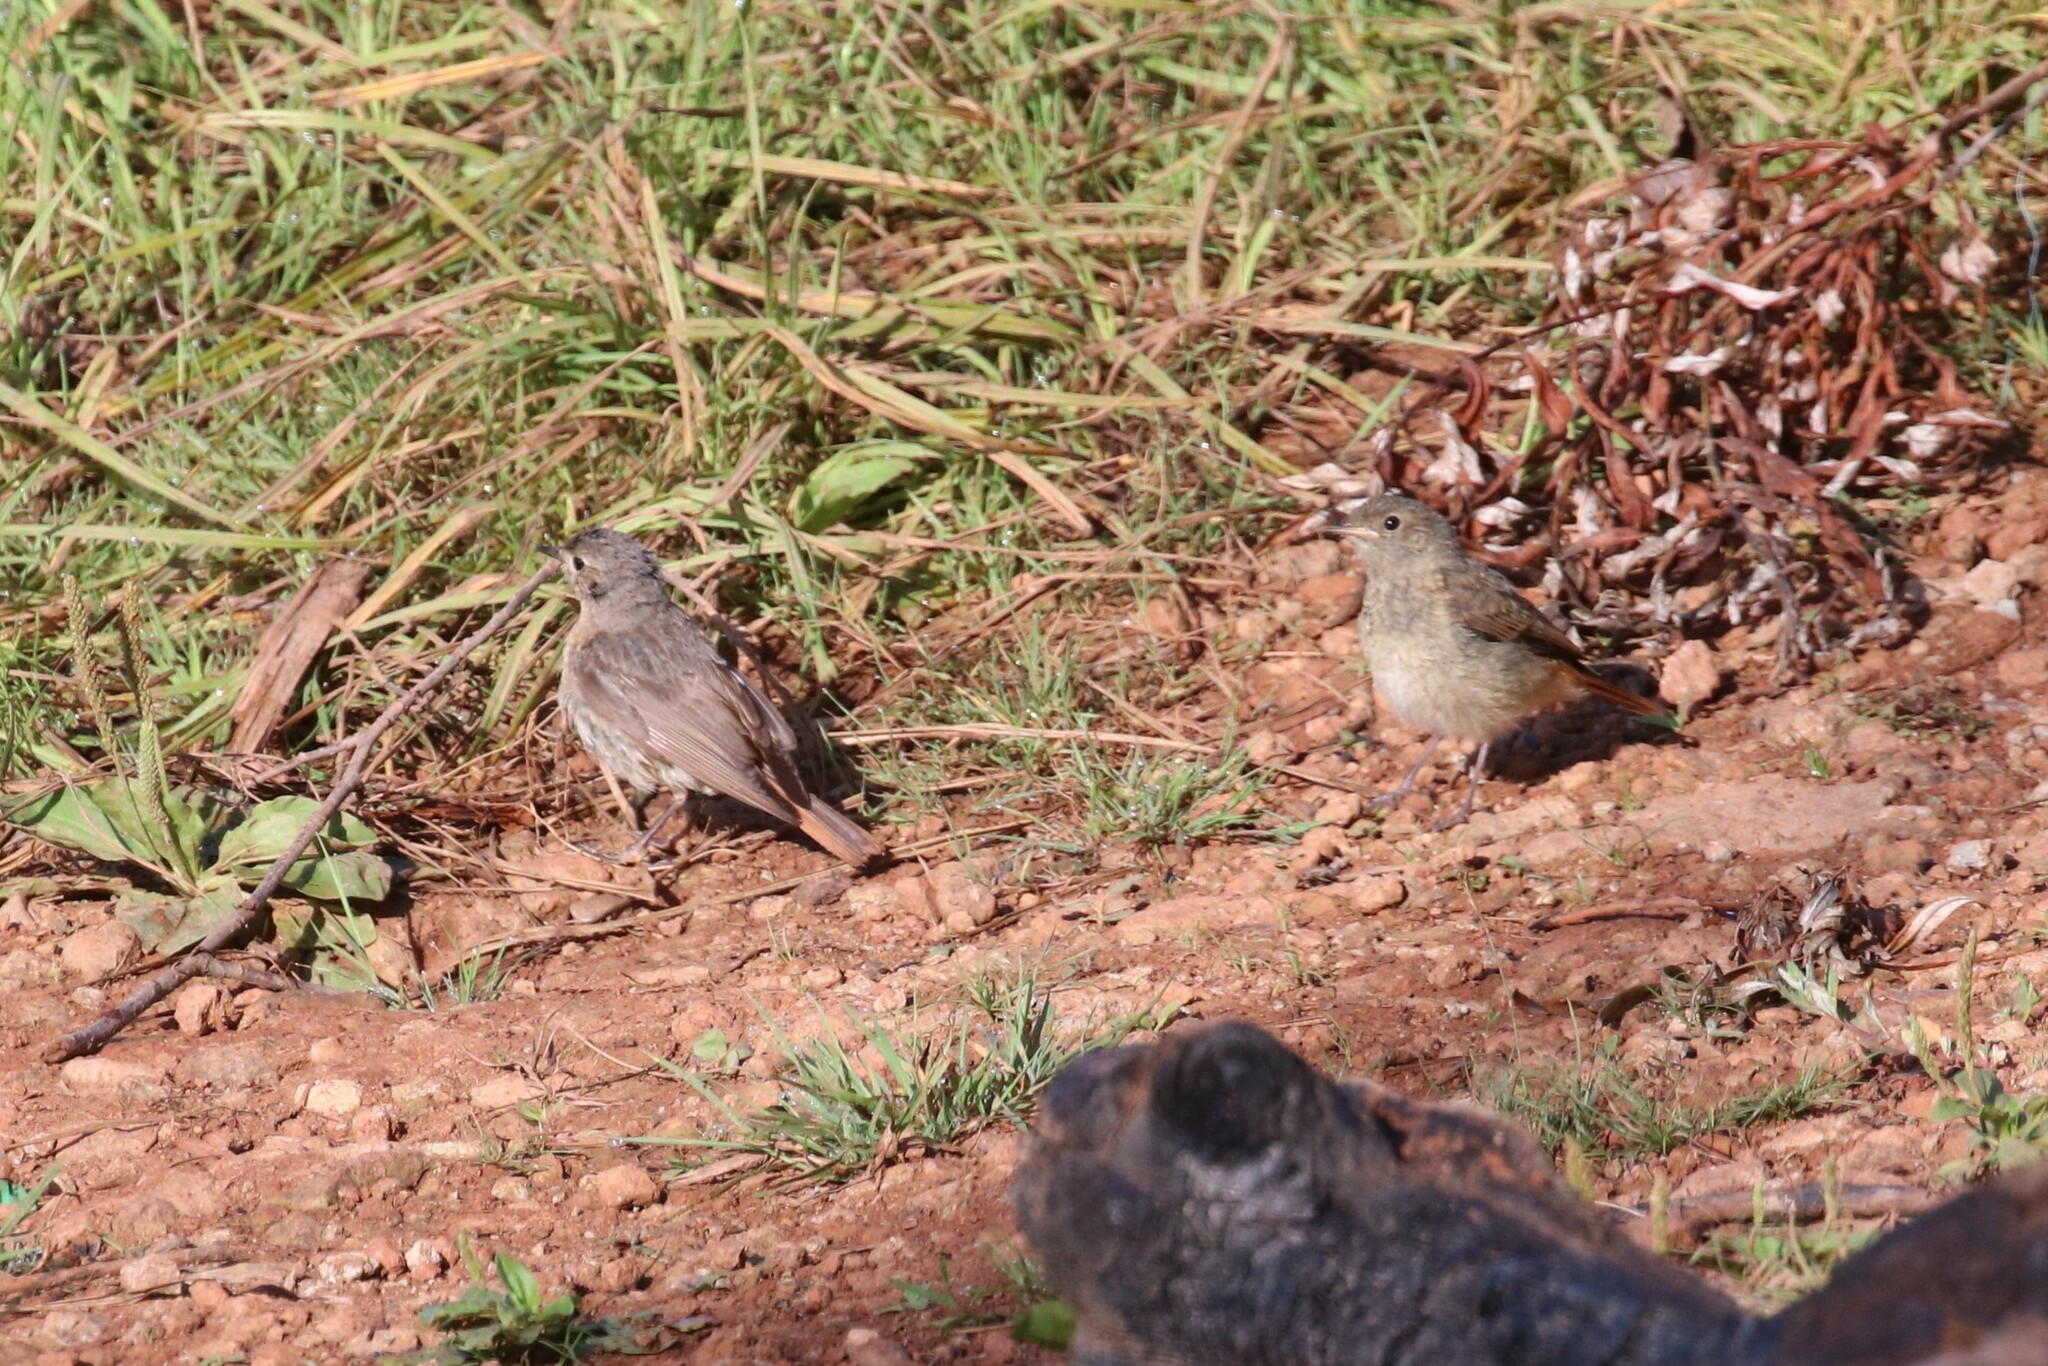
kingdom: Animalia
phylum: Chordata
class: Aves
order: Passeriformes
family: Muscicapidae
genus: Phoenicurus
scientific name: Phoenicurus phoenicurus
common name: Common redstart
